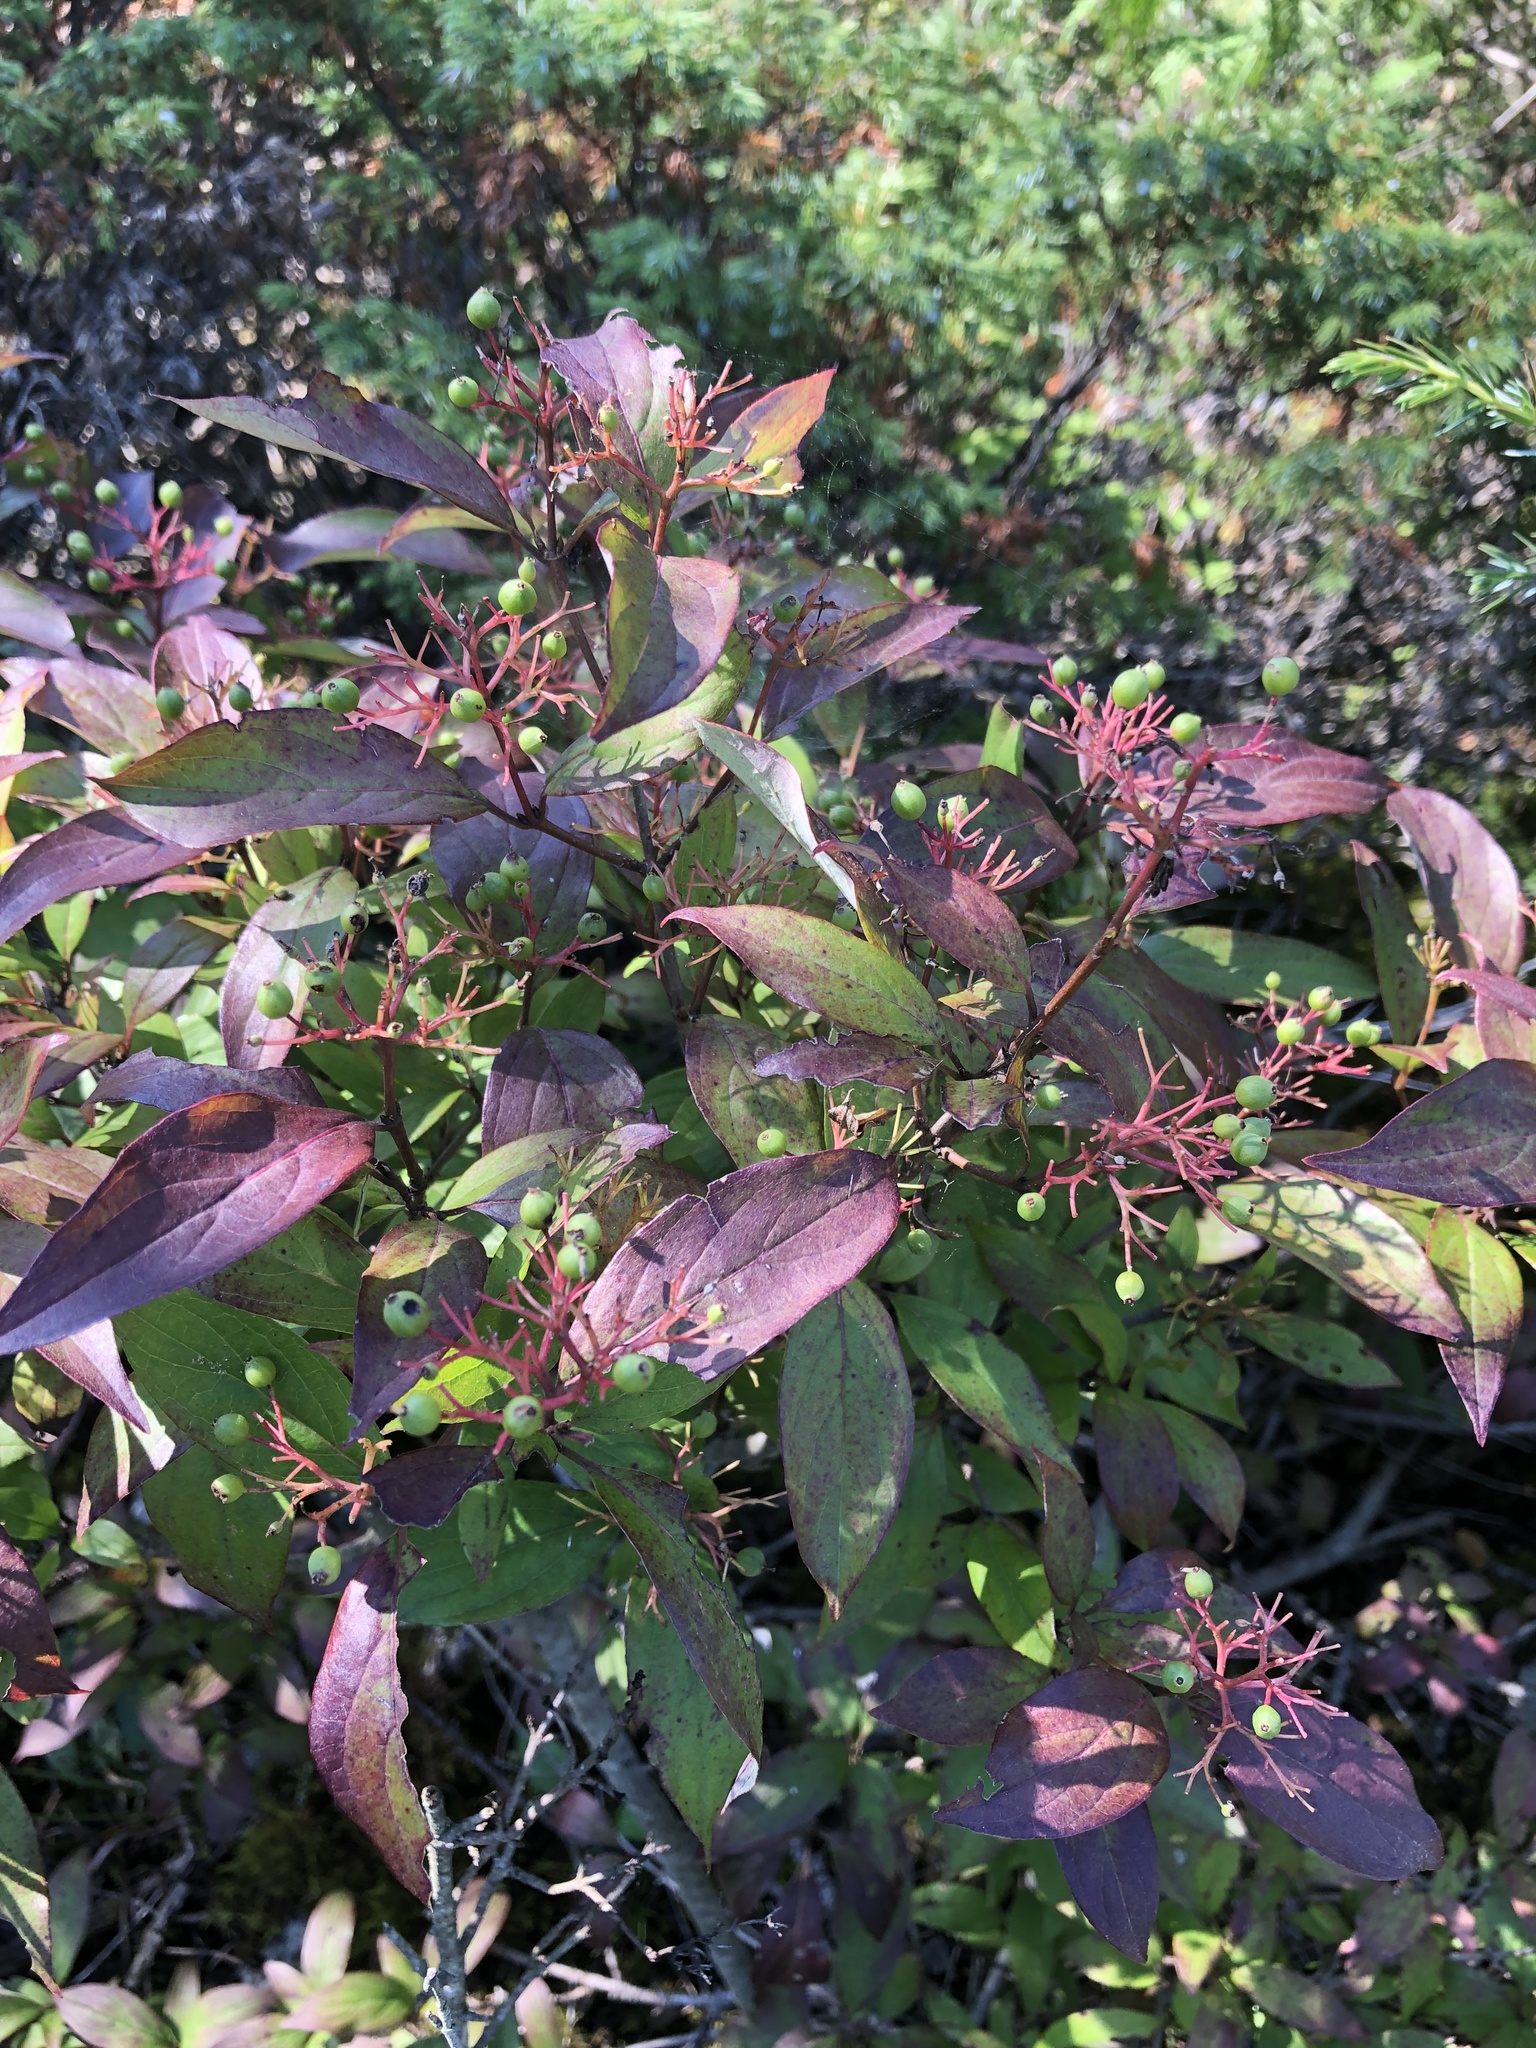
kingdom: Plantae
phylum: Tracheophyta
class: Magnoliopsida
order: Cornales
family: Cornaceae
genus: Cornus
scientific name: Cornus racemosa
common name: Panicled dogwood
